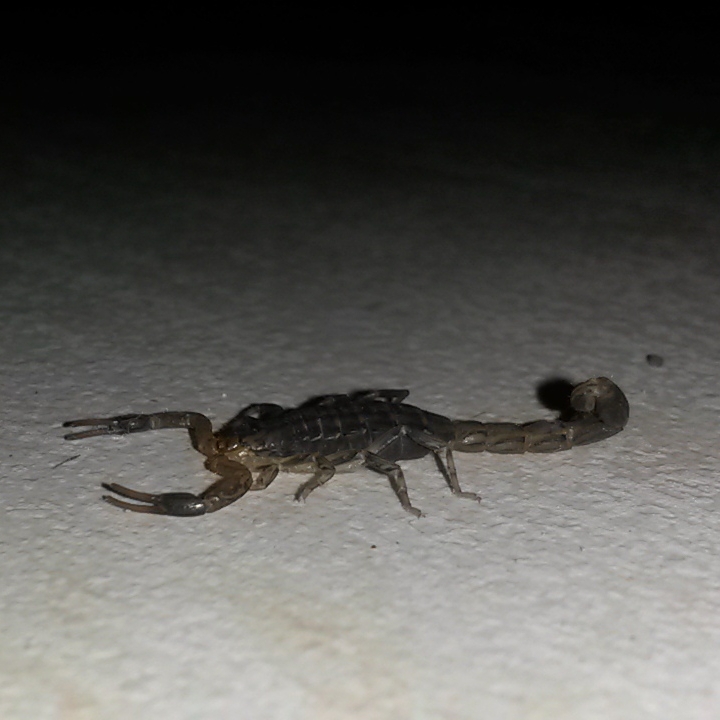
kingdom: Animalia
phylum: Arthropoda
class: Arachnida
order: Scorpiones
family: Buthidae
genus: Uroplectes
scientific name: Uroplectes lineatus
